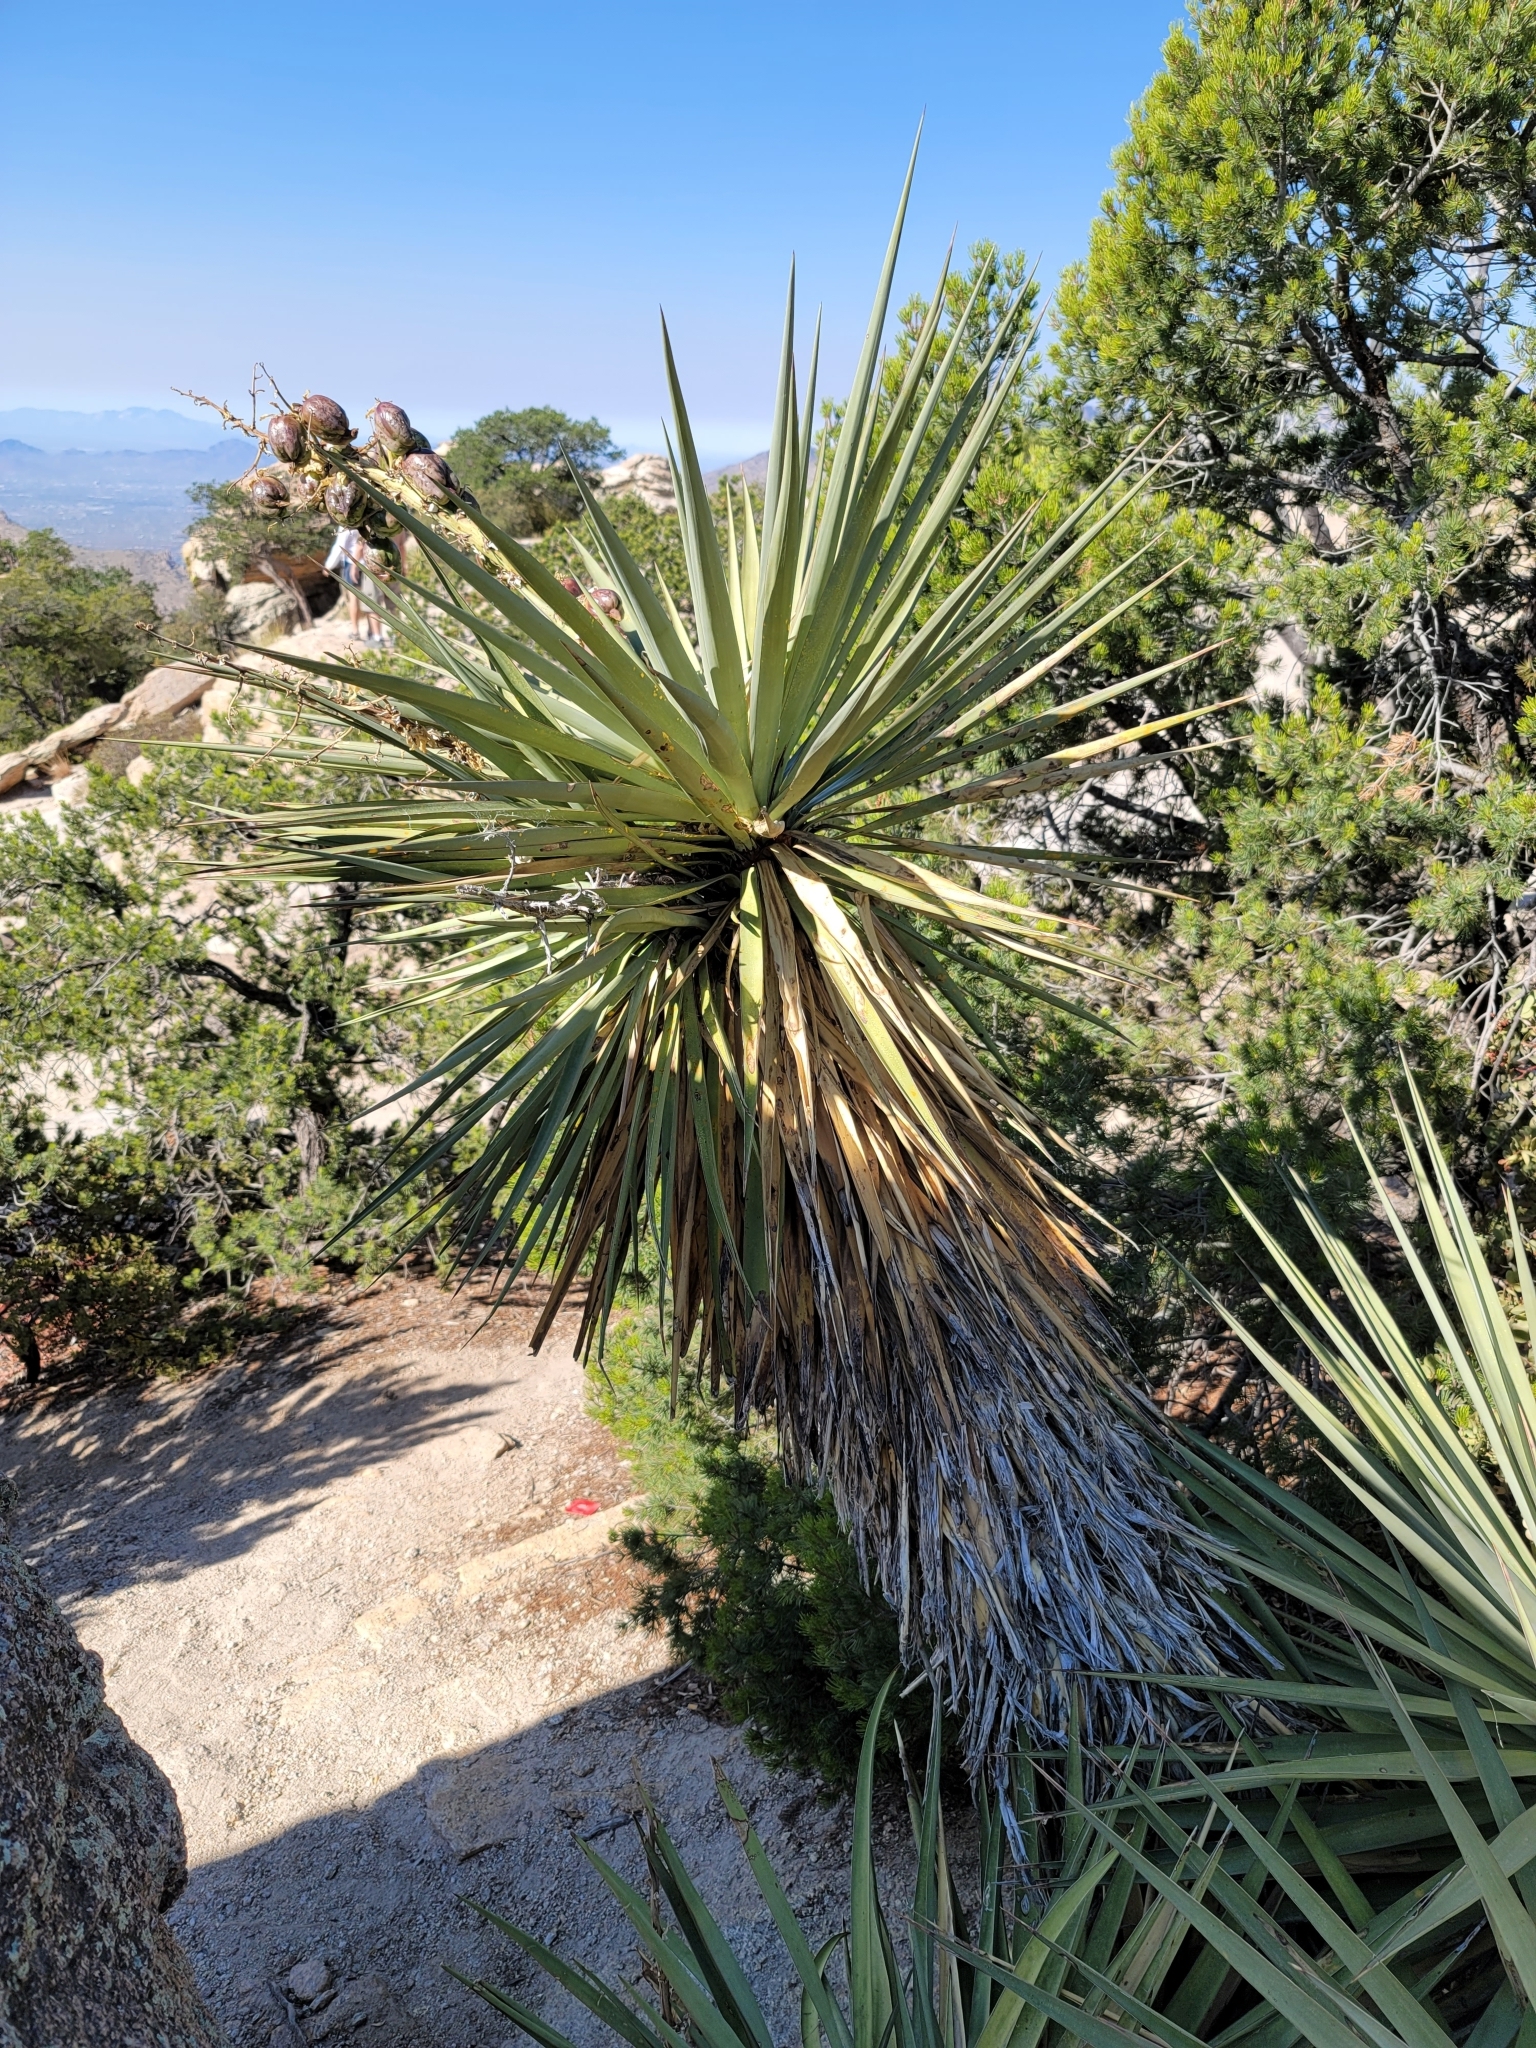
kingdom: Plantae
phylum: Tracheophyta
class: Liliopsida
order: Asparagales
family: Asparagaceae
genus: Yucca
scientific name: Yucca madrensis
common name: Hoary yucca
